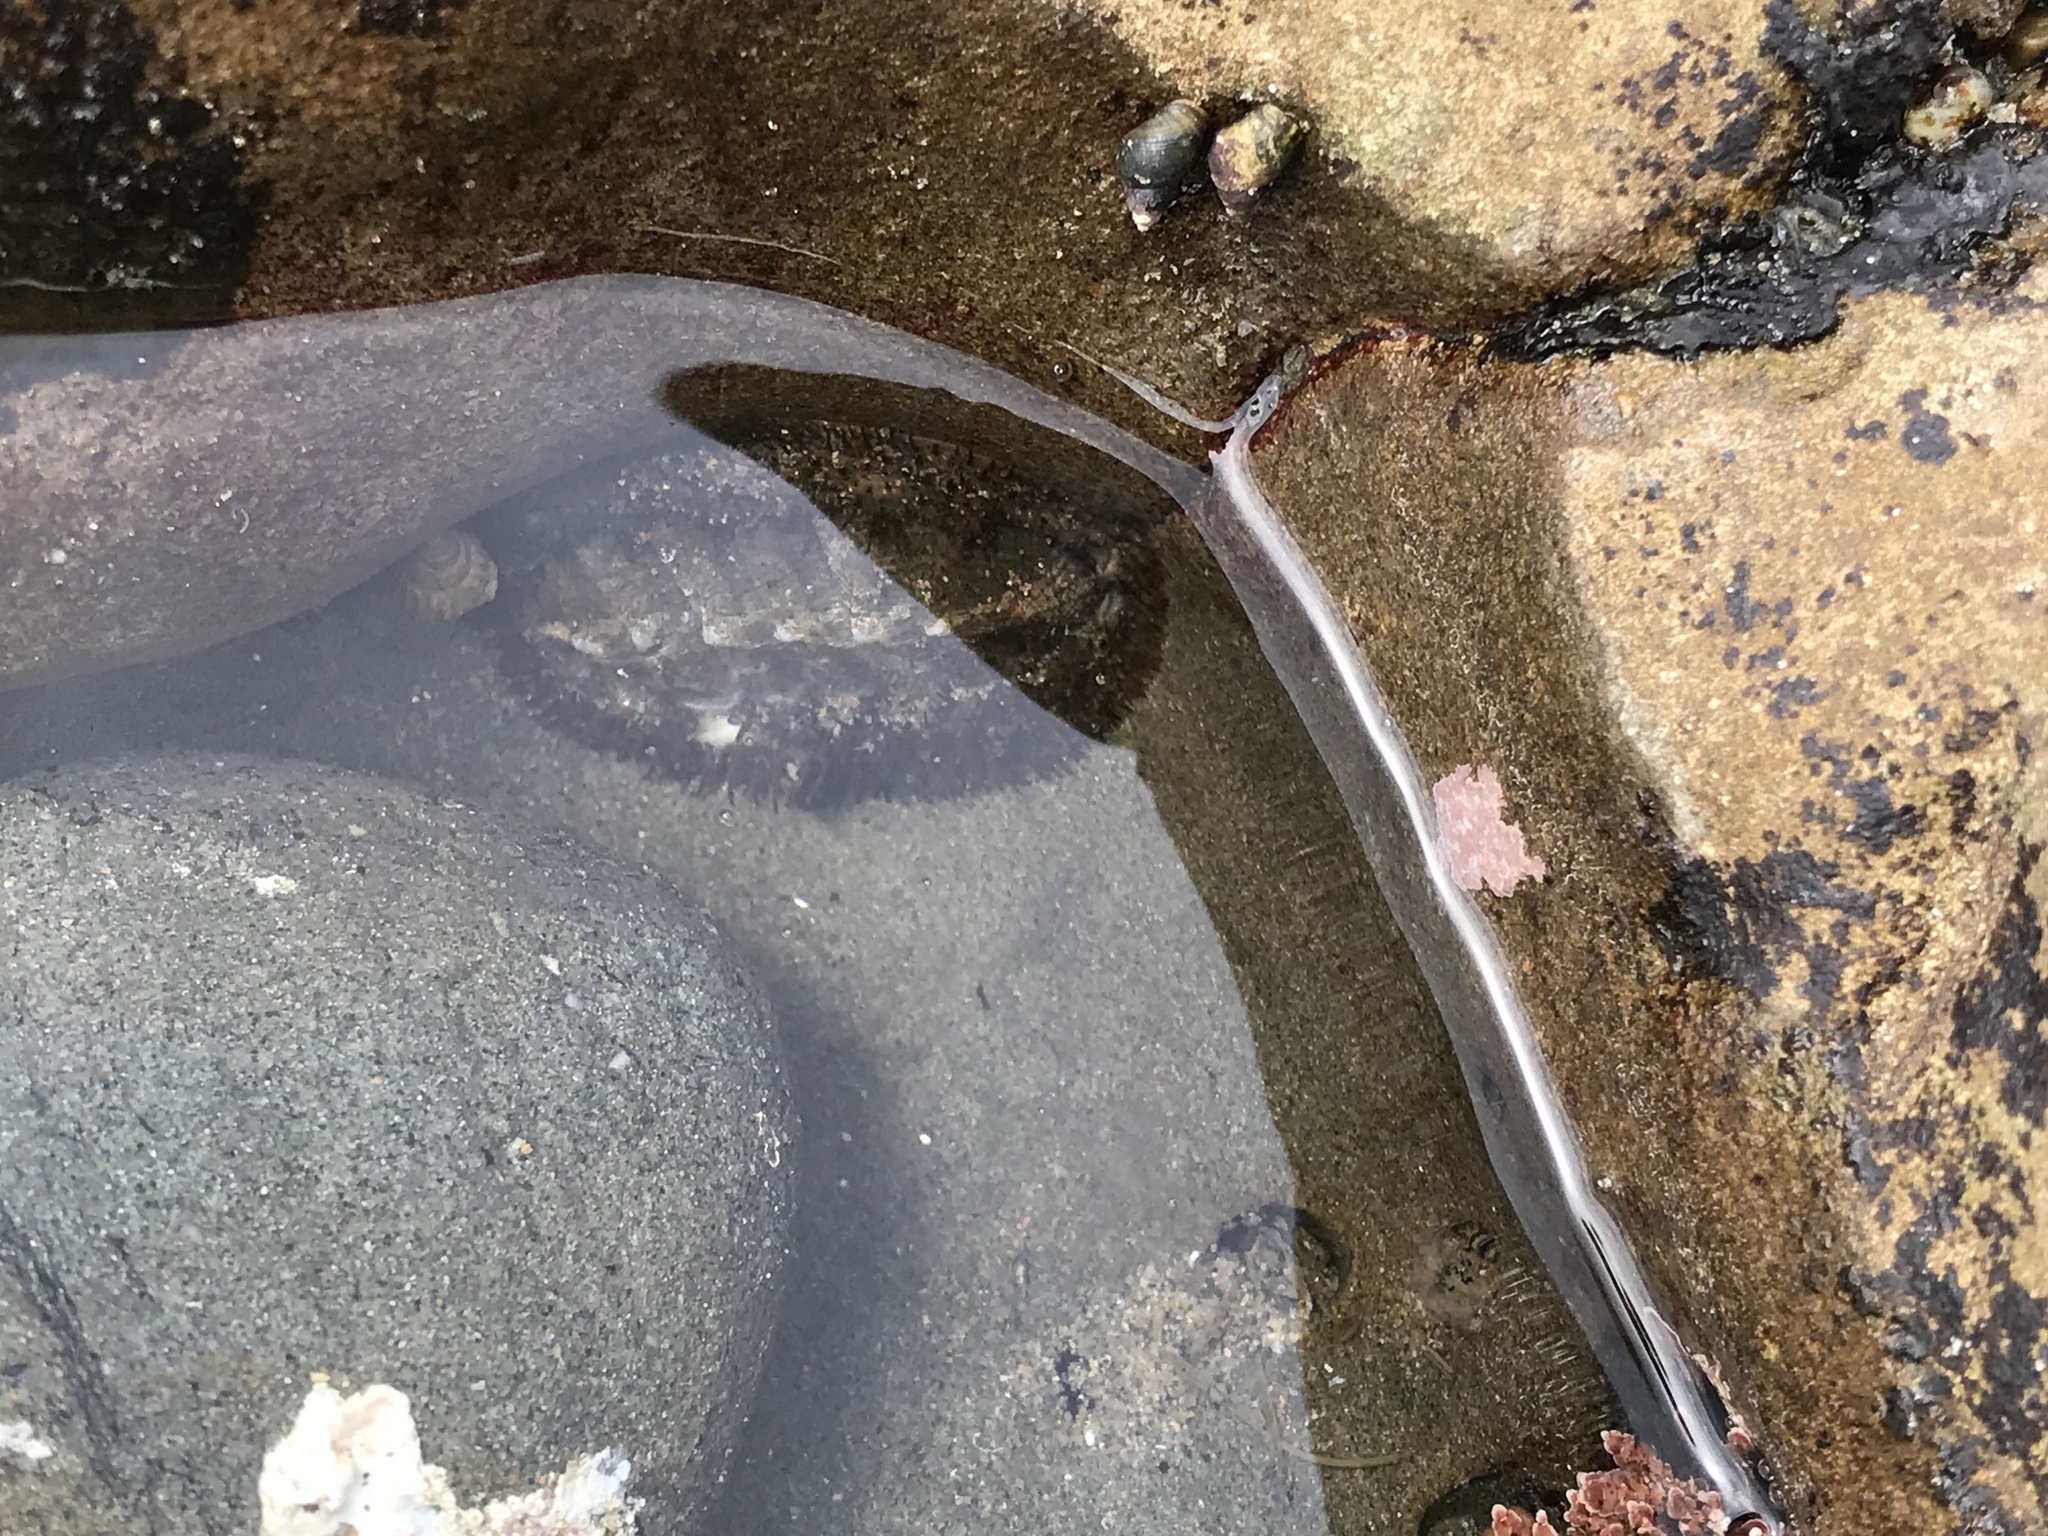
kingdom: Animalia
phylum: Mollusca
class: Polyplacophora
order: Chitonida
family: Mopaliidae
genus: Mopalia
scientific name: Mopalia muscosa
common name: Mossy chiton
